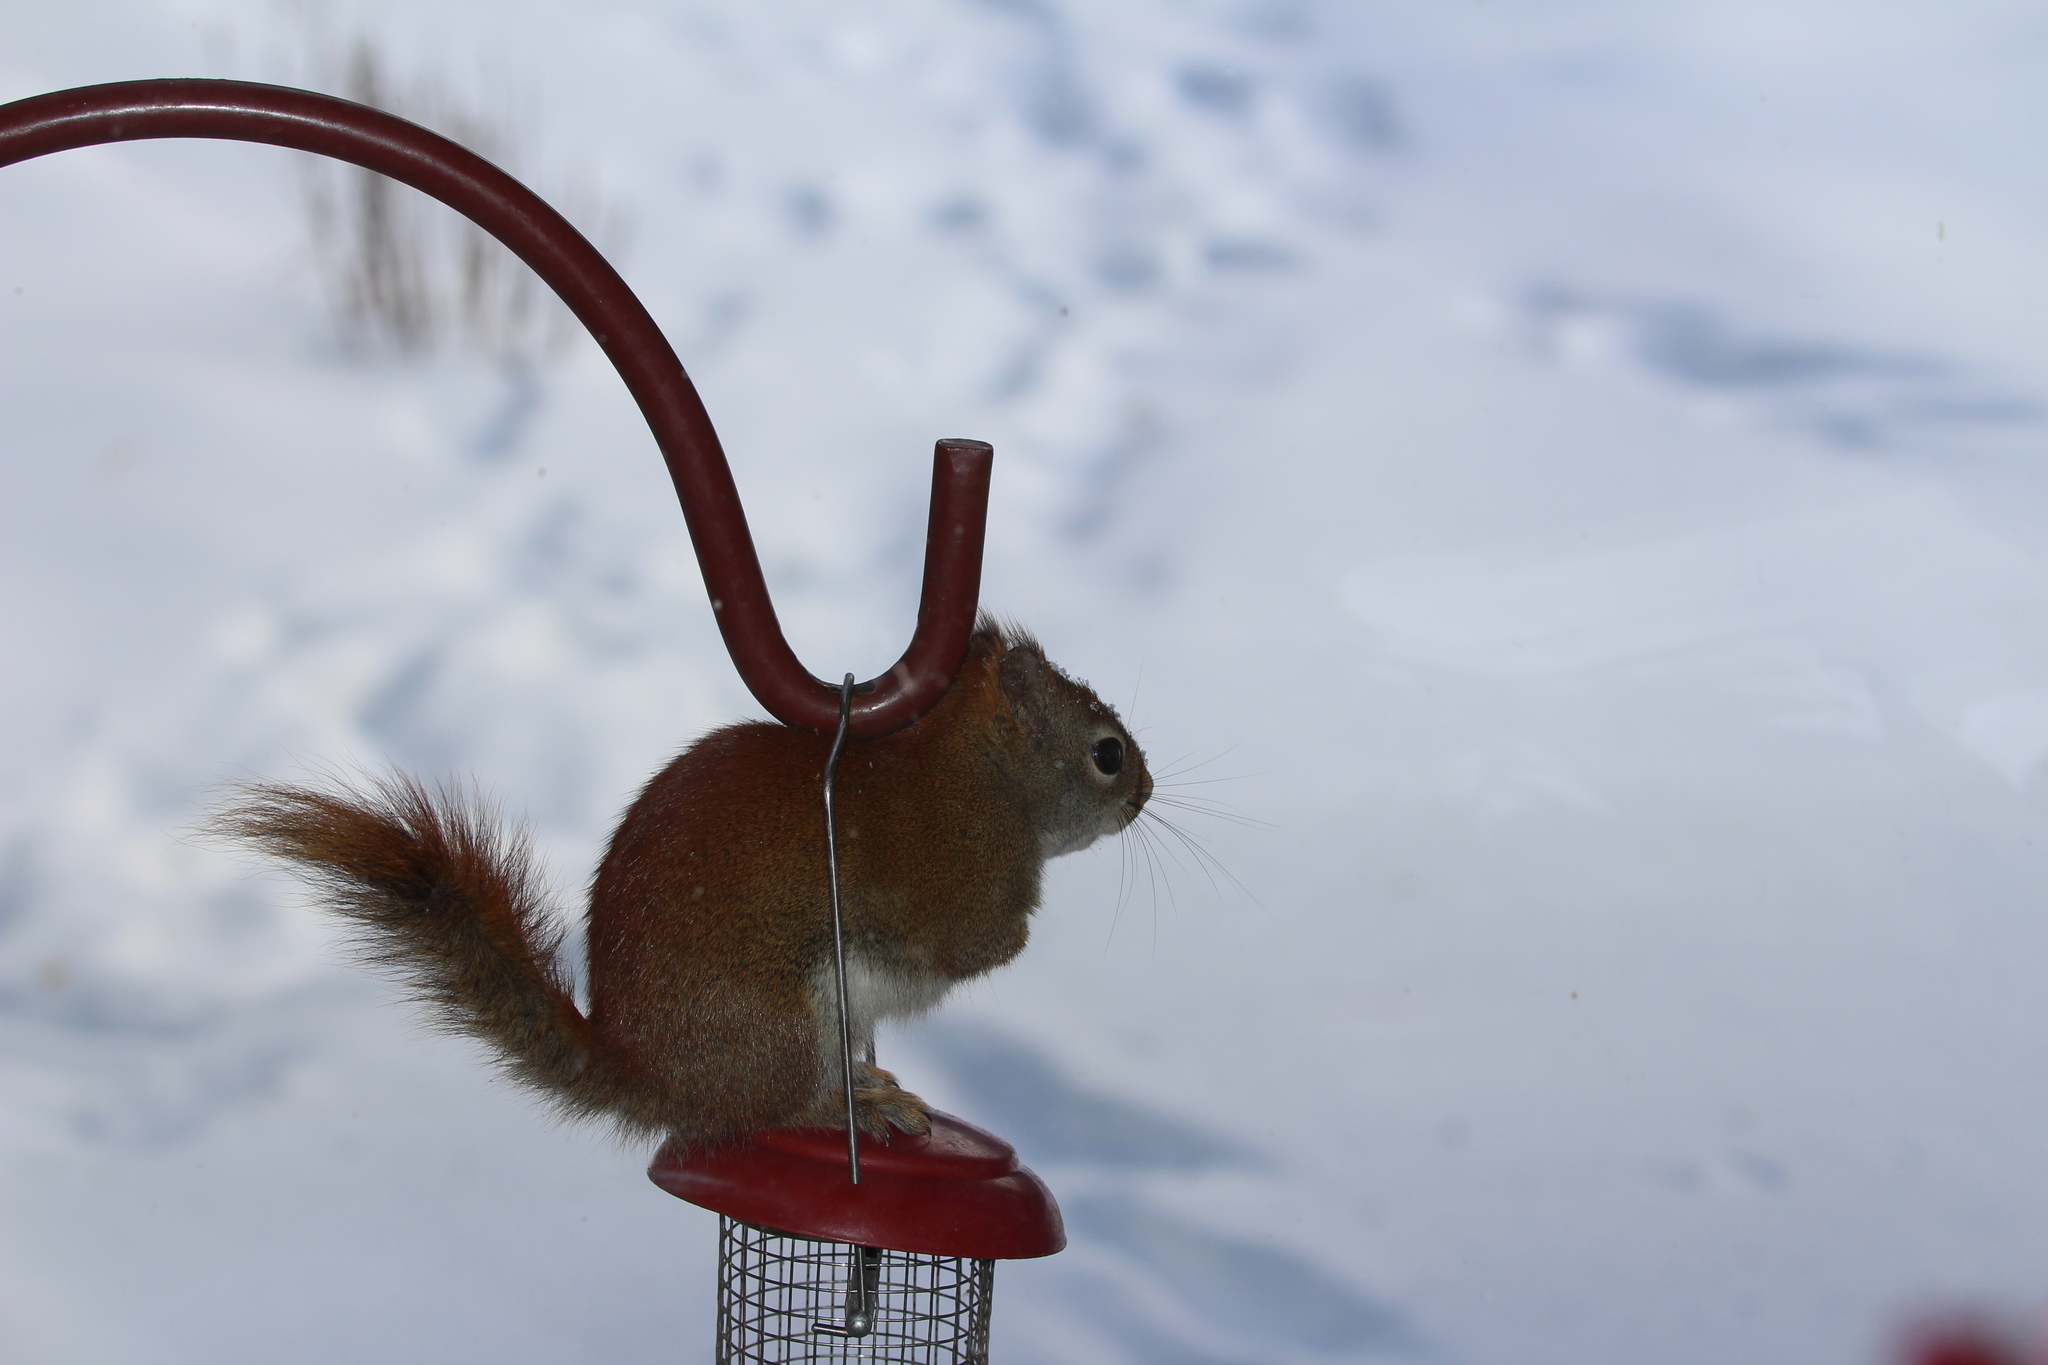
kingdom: Animalia
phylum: Chordata
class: Mammalia
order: Rodentia
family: Sciuridae
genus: Tamiasciurus
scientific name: Tamiasciurus hudsonicus
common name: Red squirrel
